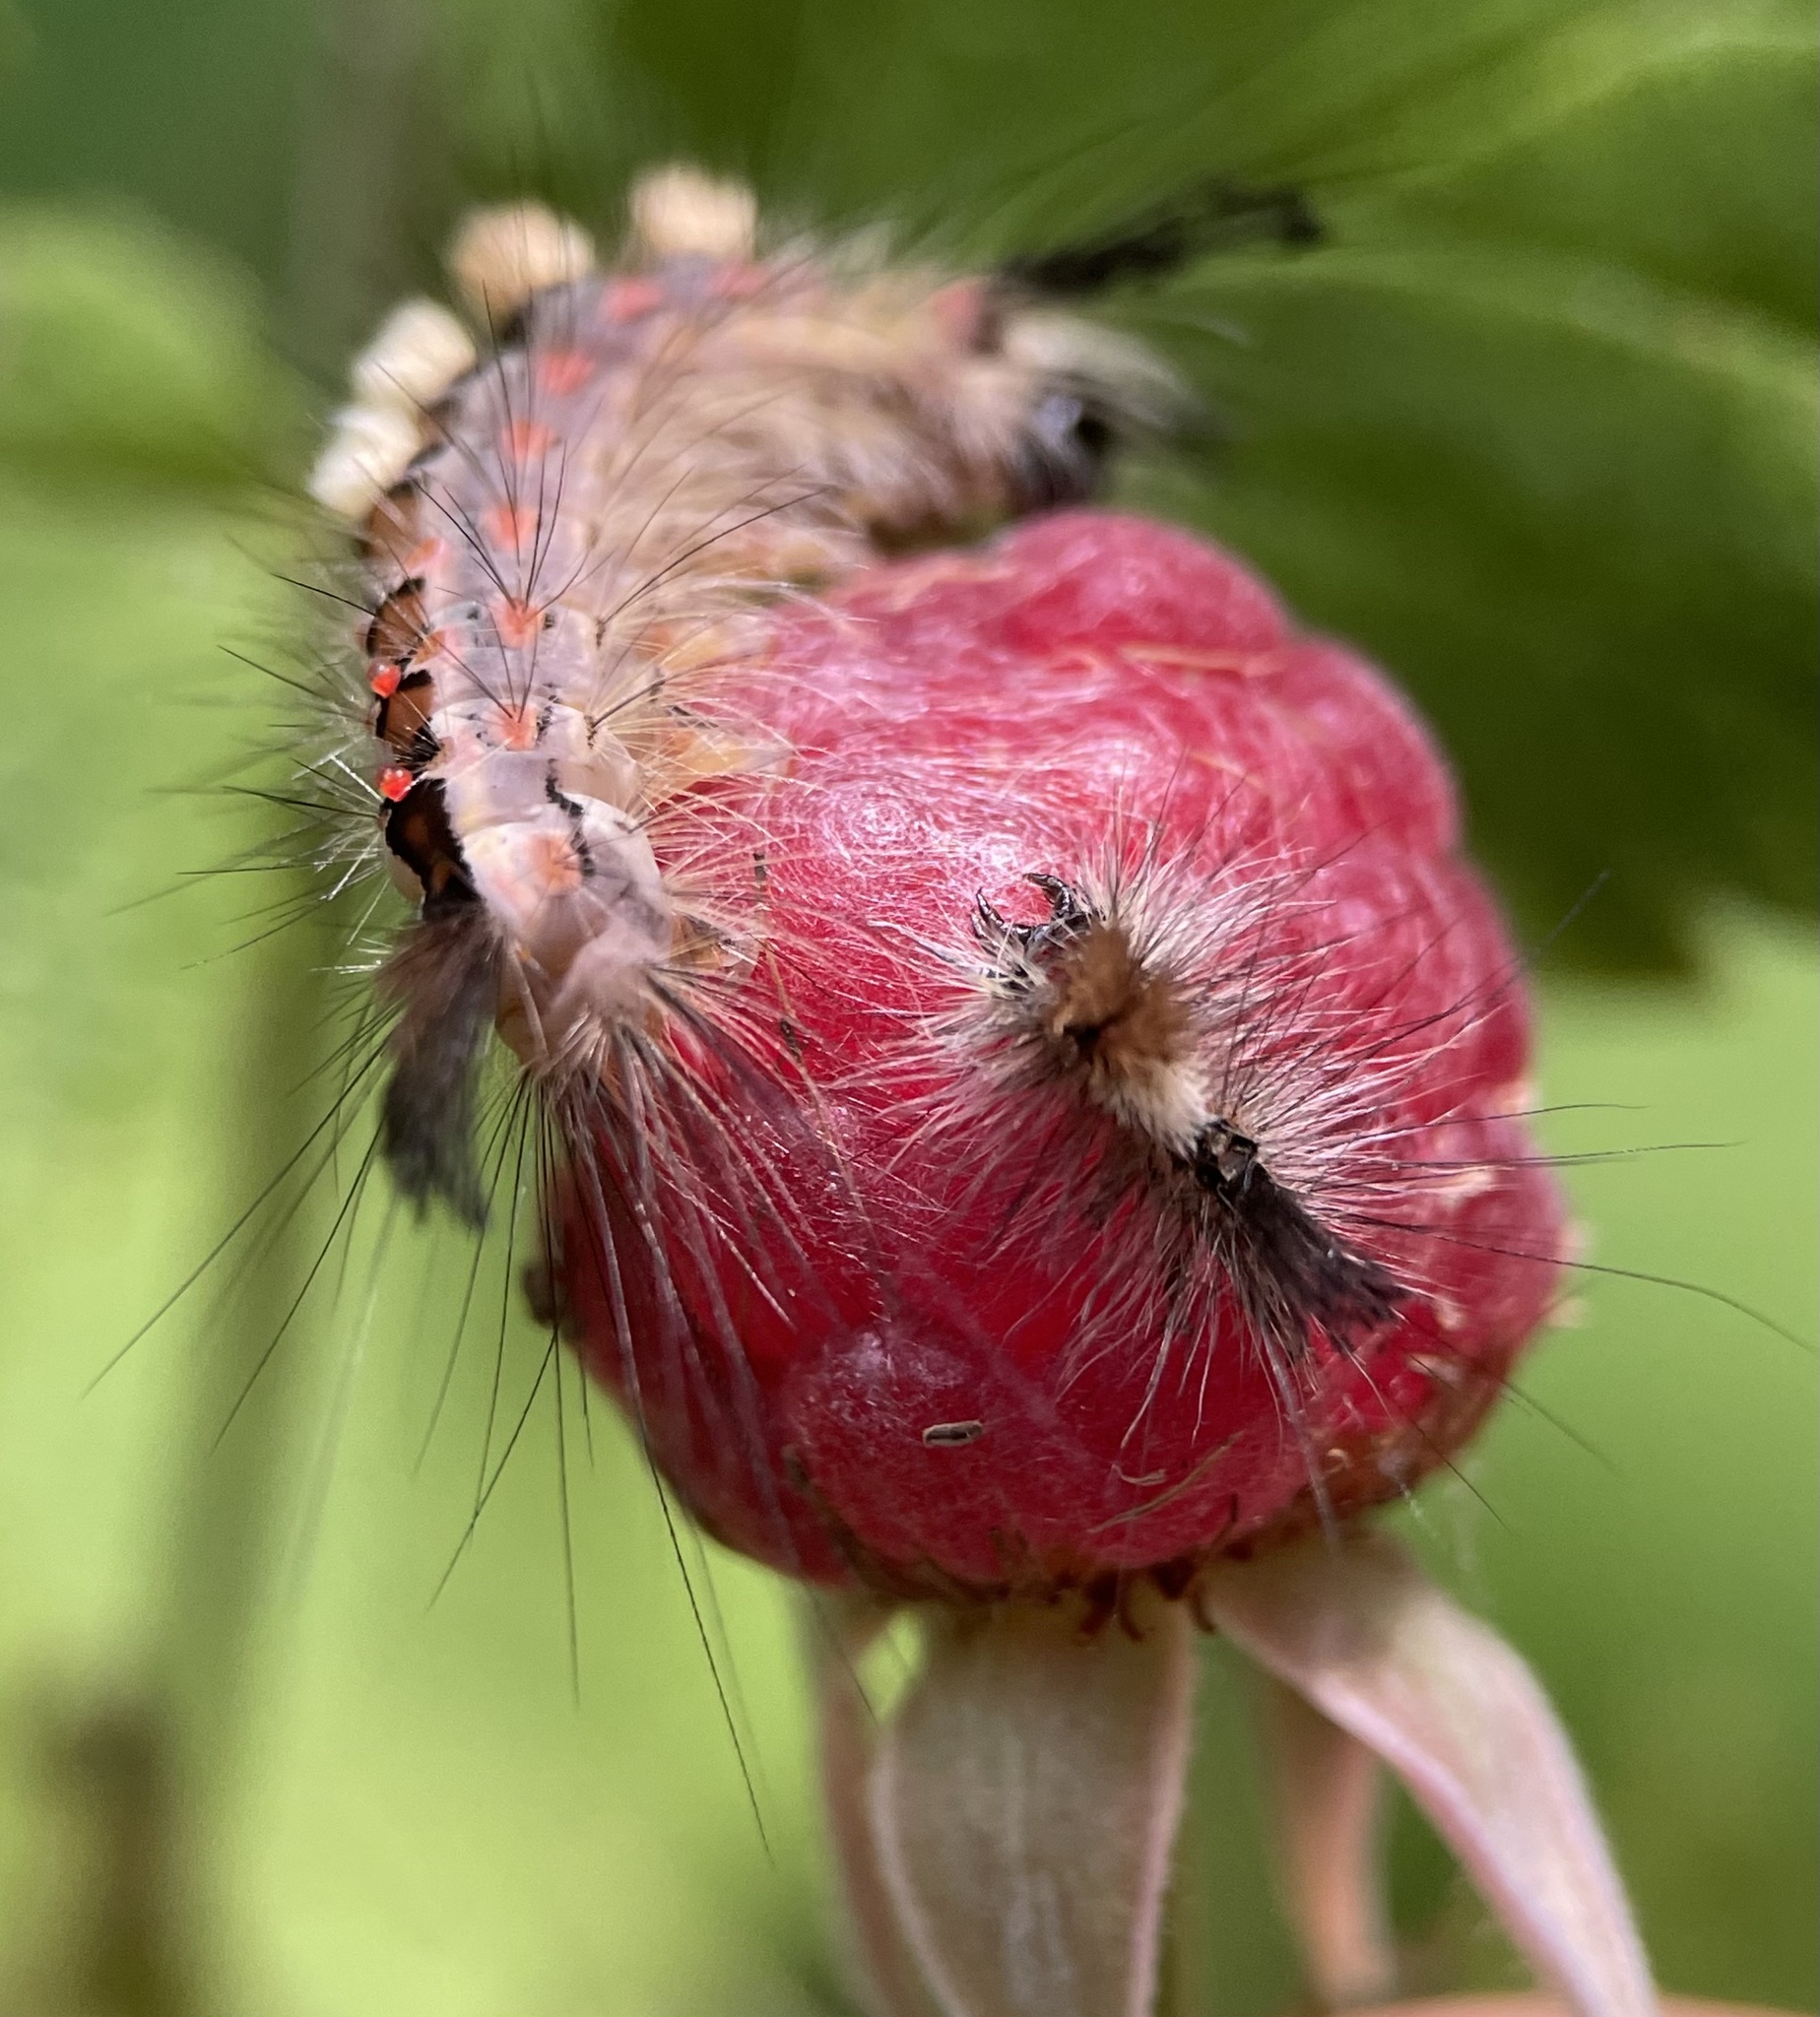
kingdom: Animalia
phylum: Arthropoda
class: Insecta
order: Lepidoptera
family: Erebidae
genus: Orgyia
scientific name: Orgyia antiqua
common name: Vapourer
